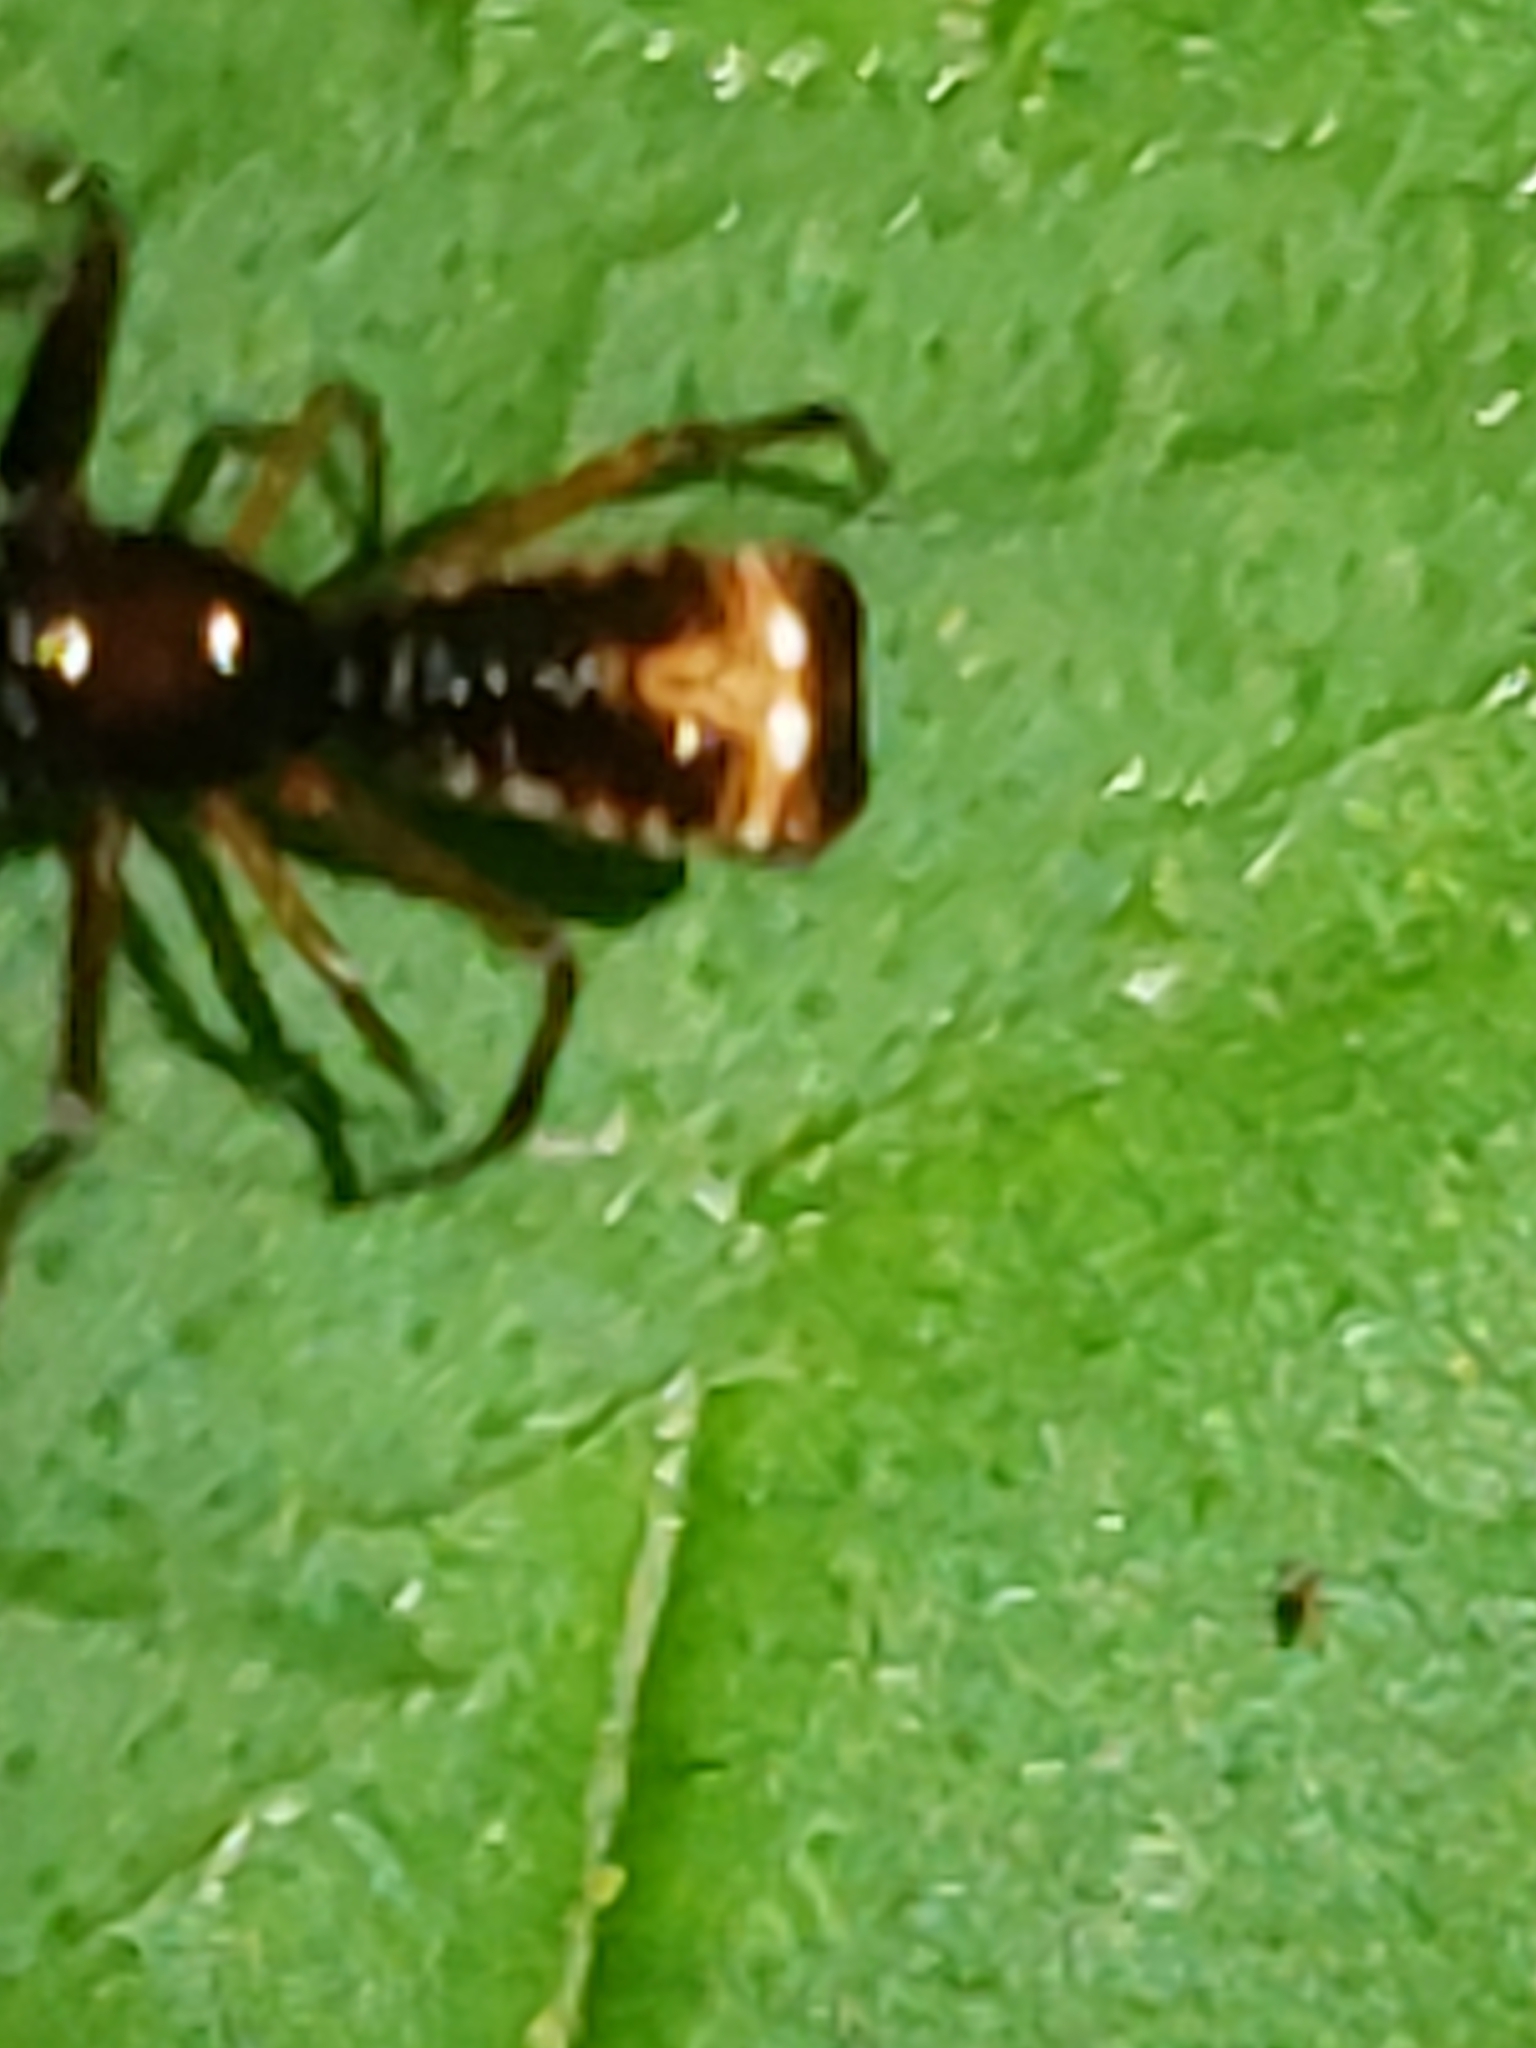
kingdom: Animalia
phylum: Arthropoda
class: Arachnida
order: Araneae
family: Araneidae
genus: Micrathena
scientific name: Micrathena sagittata
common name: Orb weavers
